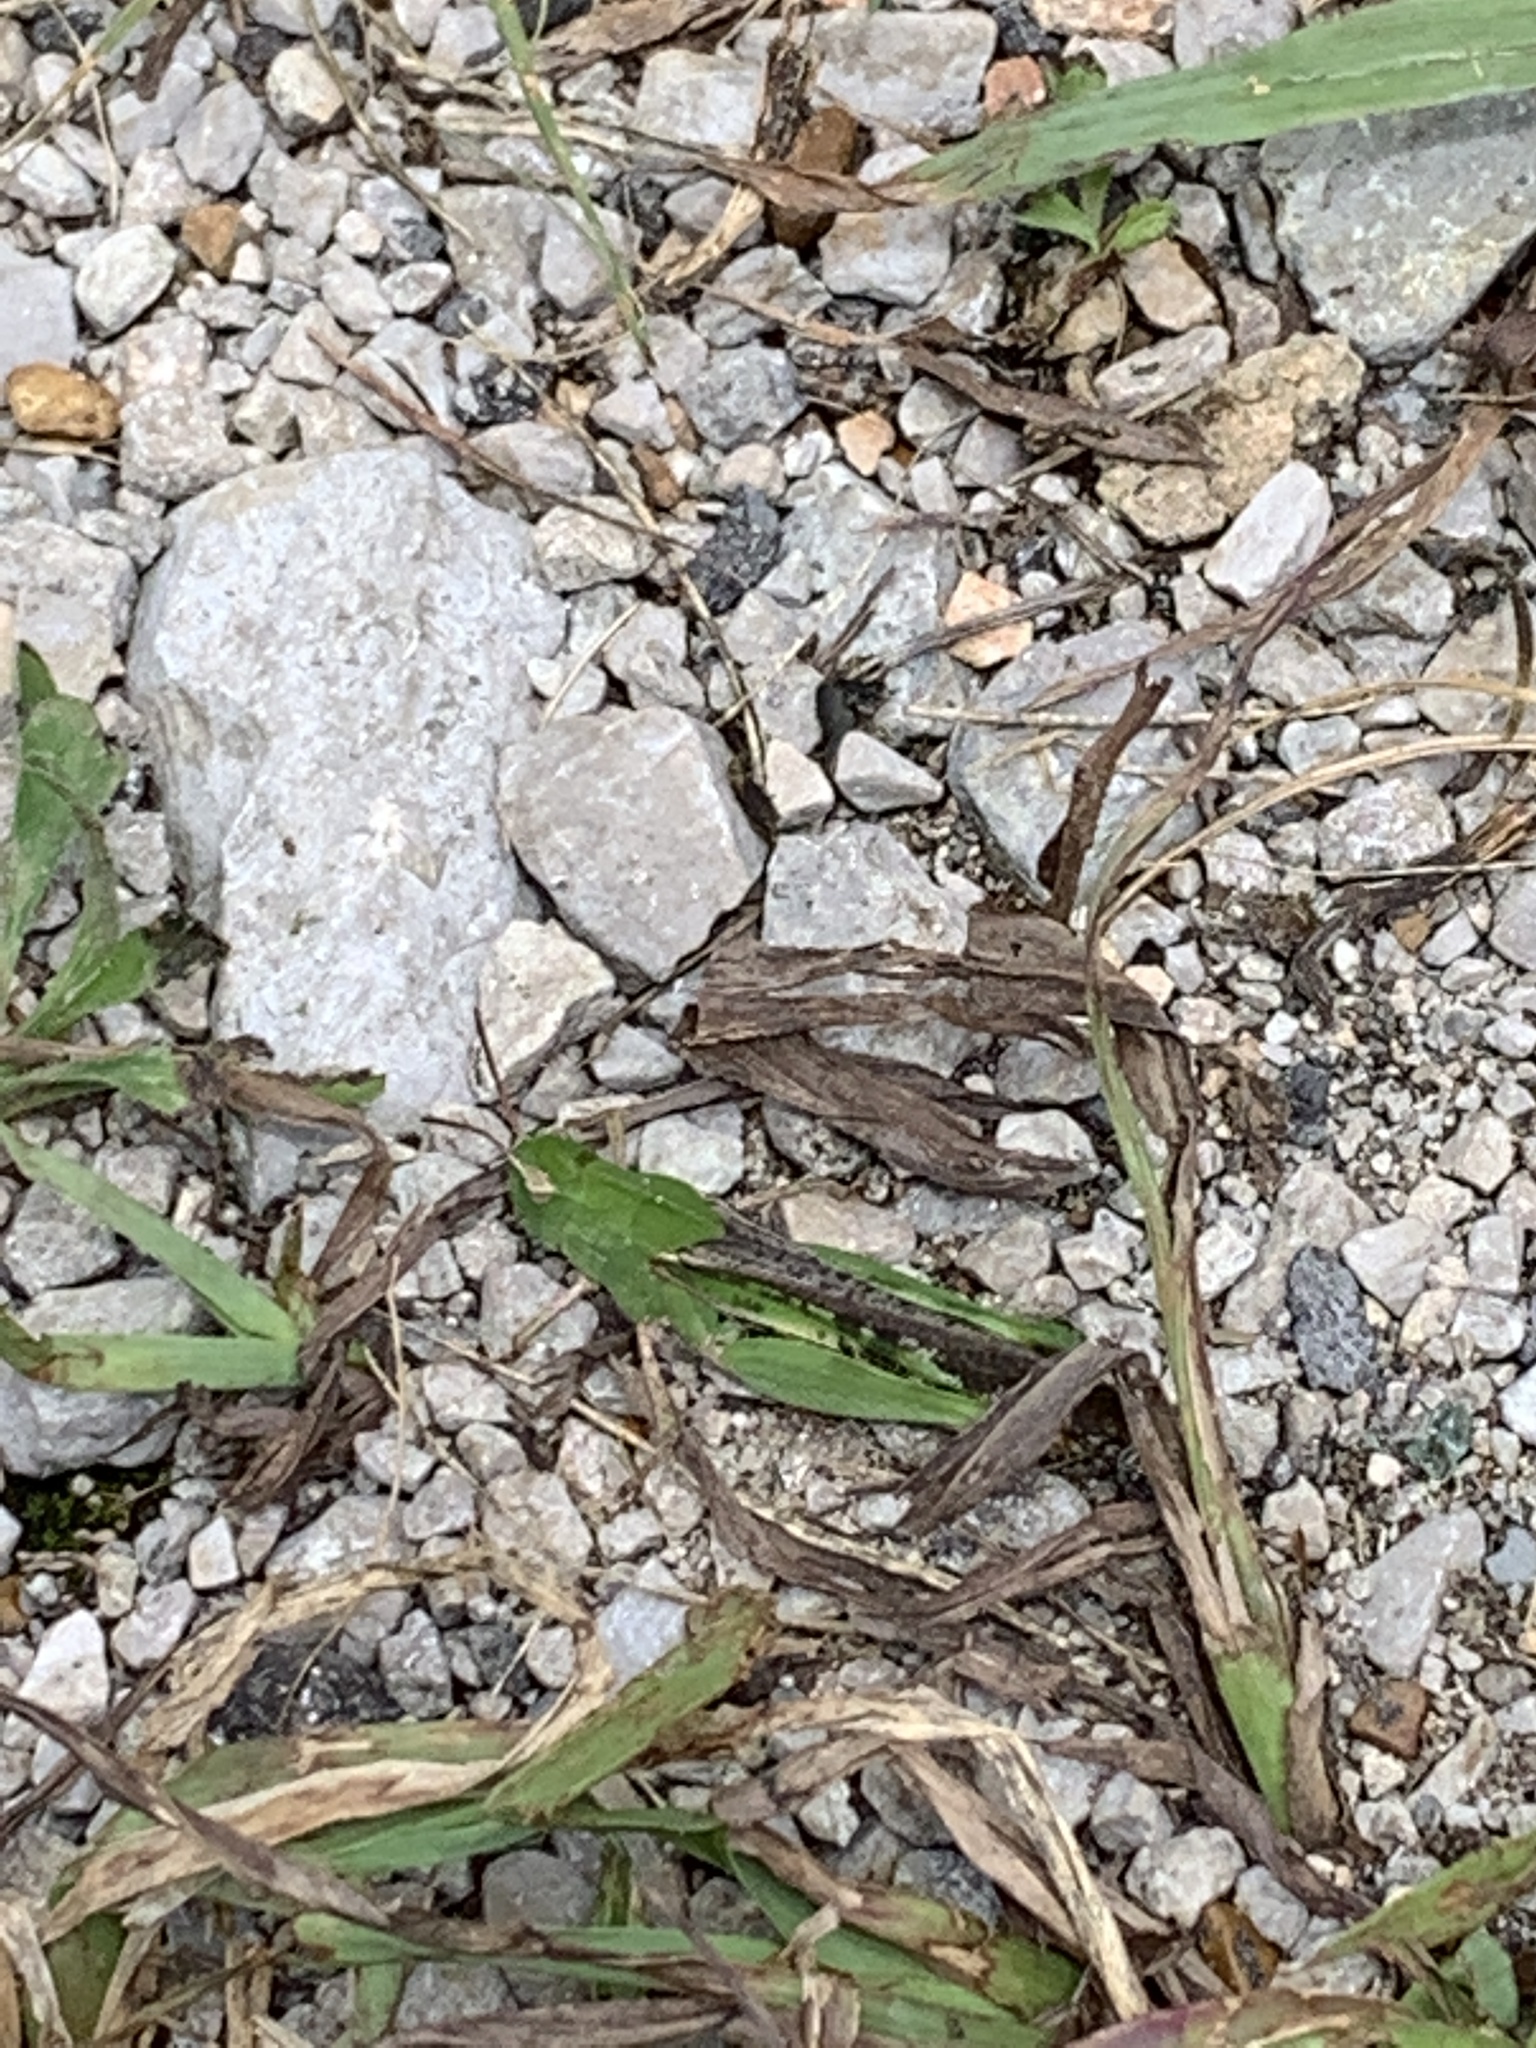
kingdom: Animalia
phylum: Arthropoda
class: Insecta
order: Orthoptera
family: Acrididae
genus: Chortophaga
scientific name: Chortophaga viridifasciata
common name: Green-striped grasshopper
